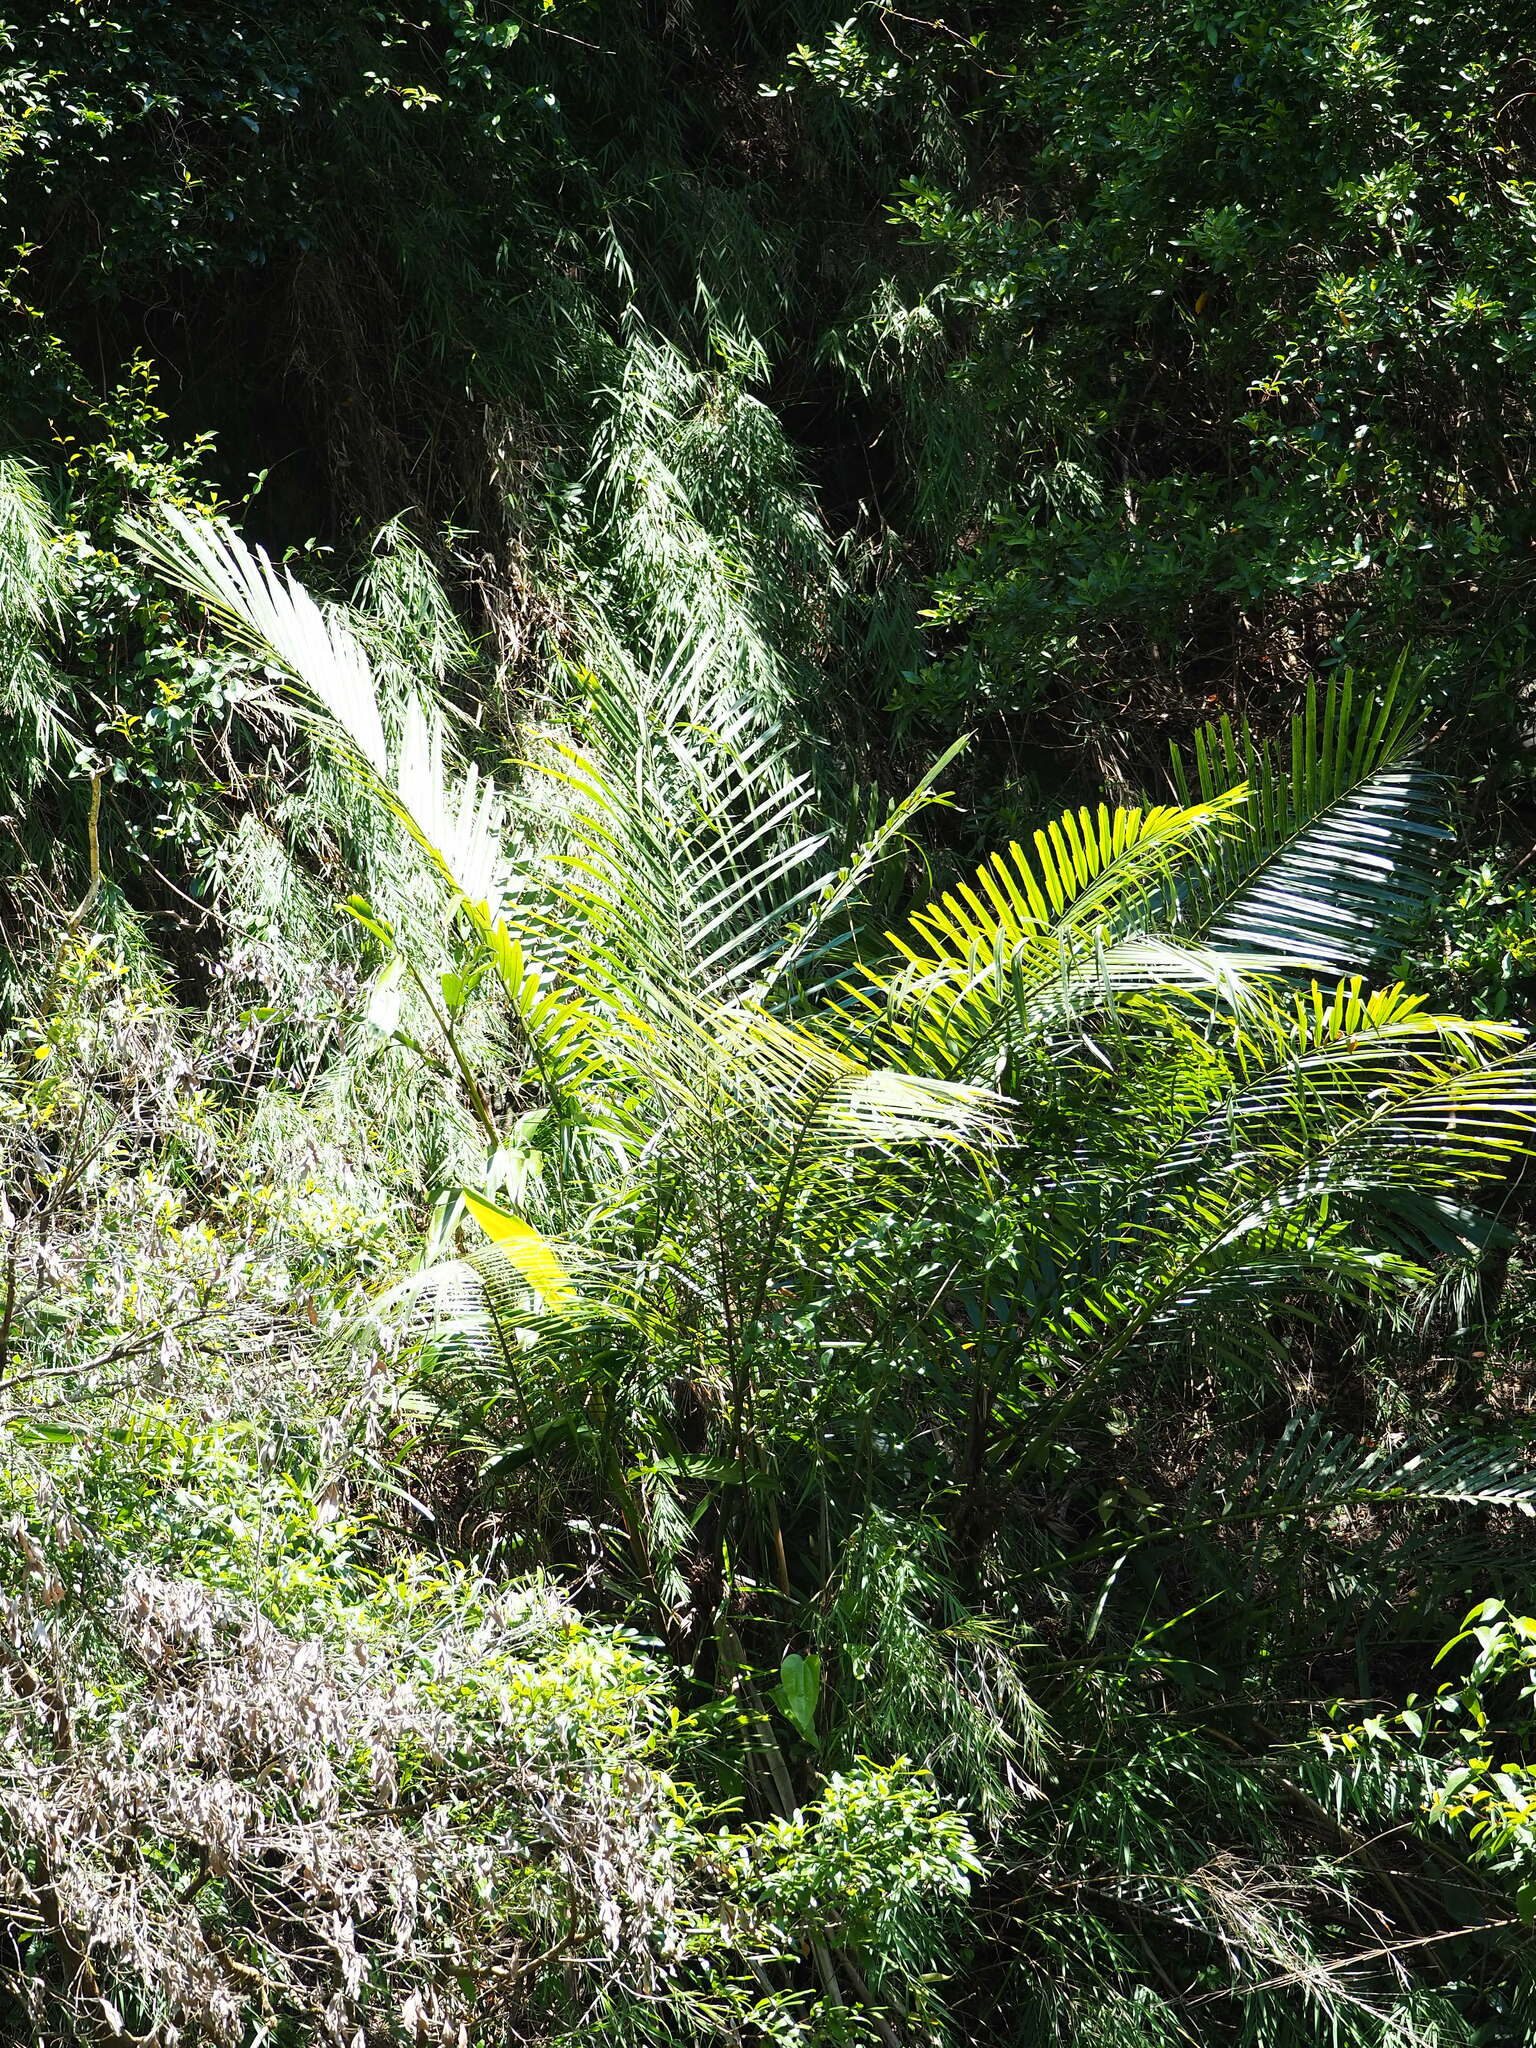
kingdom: Plantae
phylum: Tracheophyta
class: Liliopsida
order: Arecales
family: Arecaceae
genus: Arenga
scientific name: Arenga engleri
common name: Formosan sugar palm
